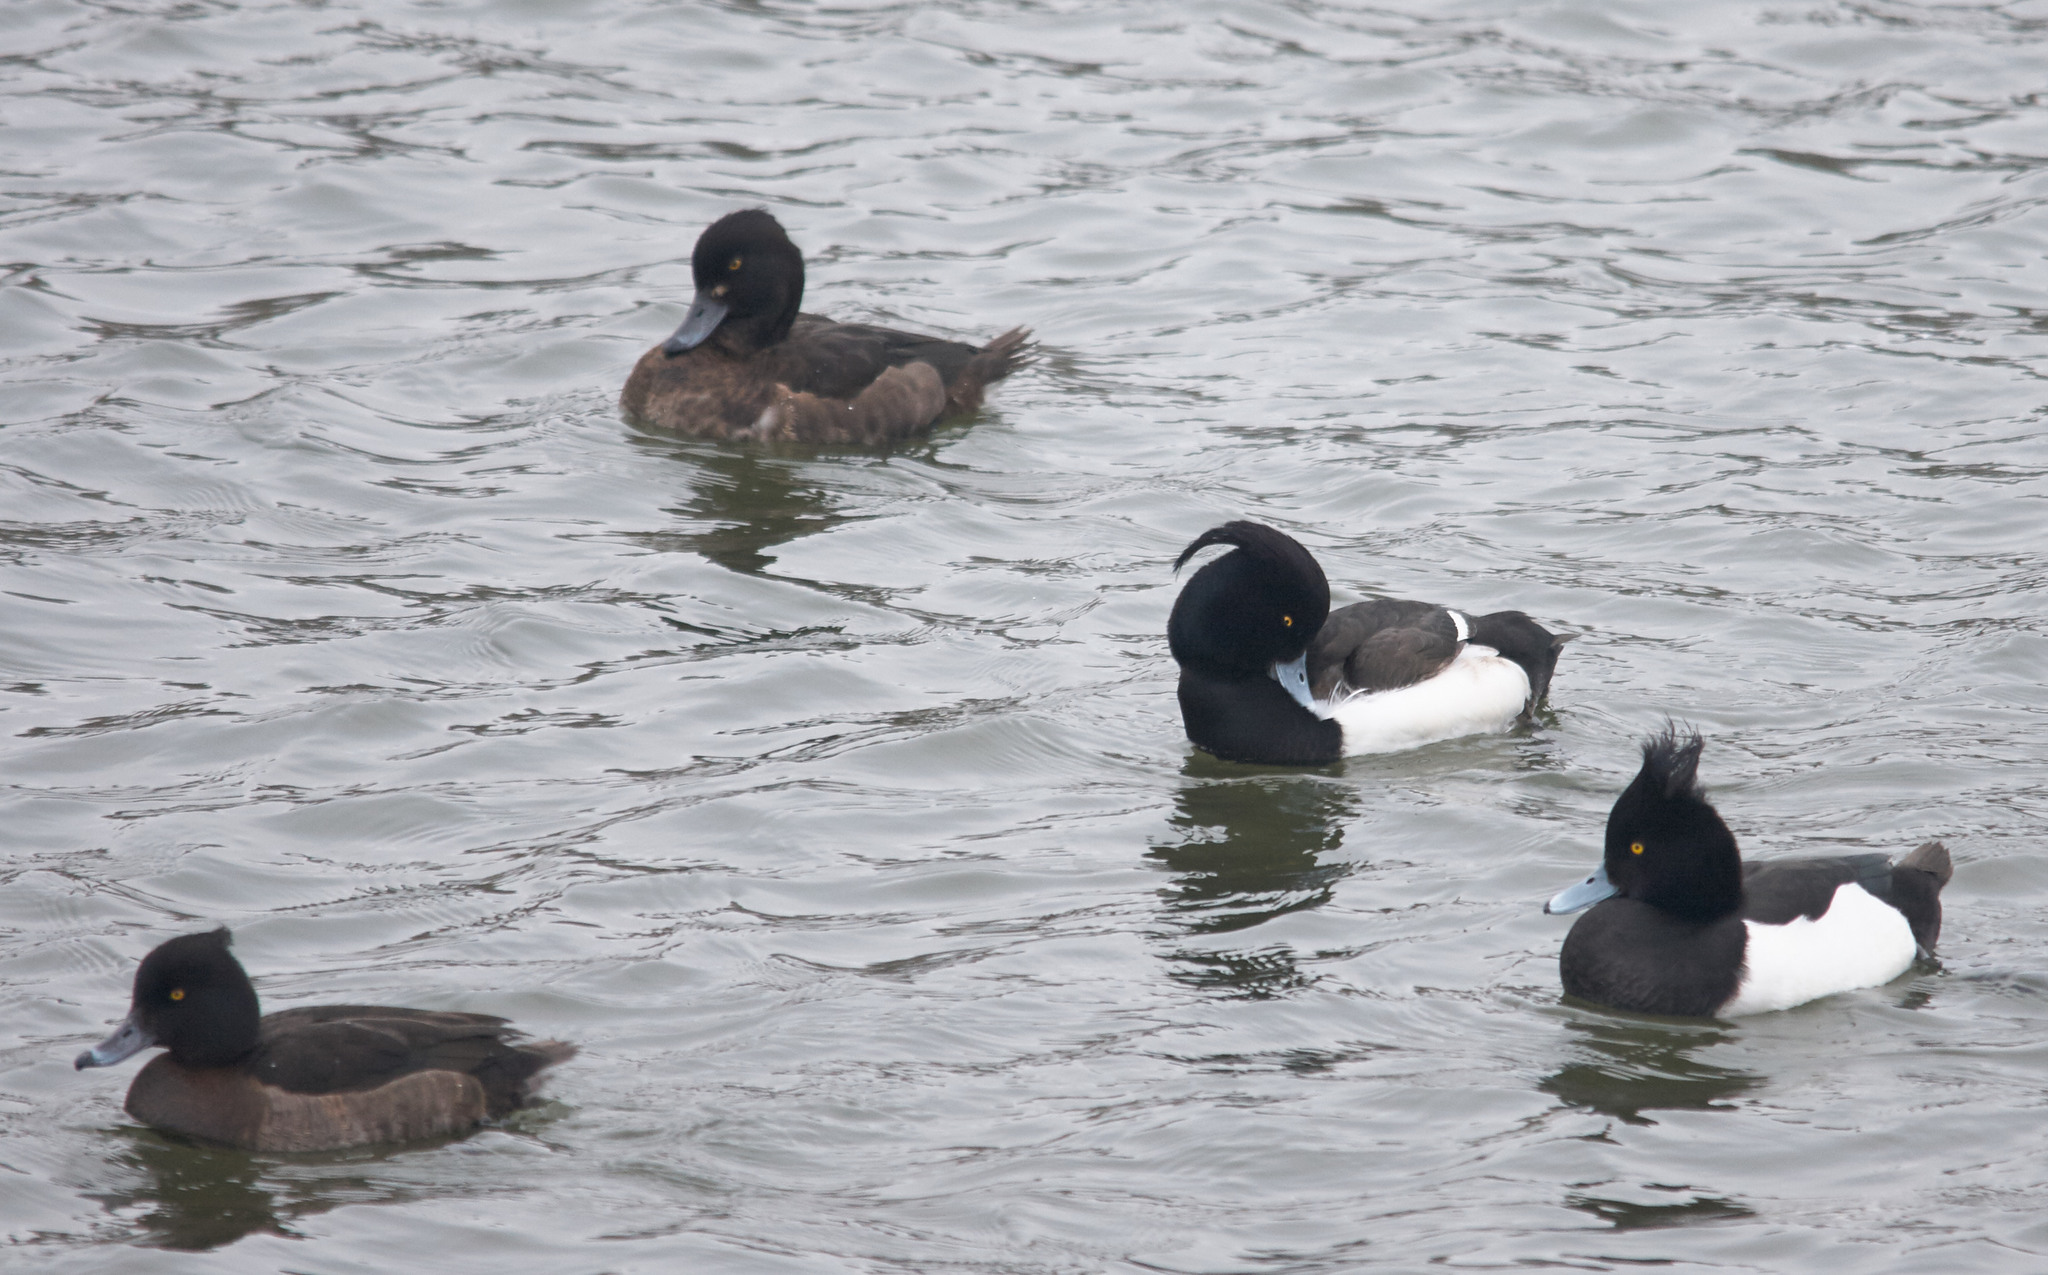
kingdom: Animalia
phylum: Chordata
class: Aves
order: Anseriformes
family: Anatidae
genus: Aythya
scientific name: Aythya fuligula
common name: Tufted duck
